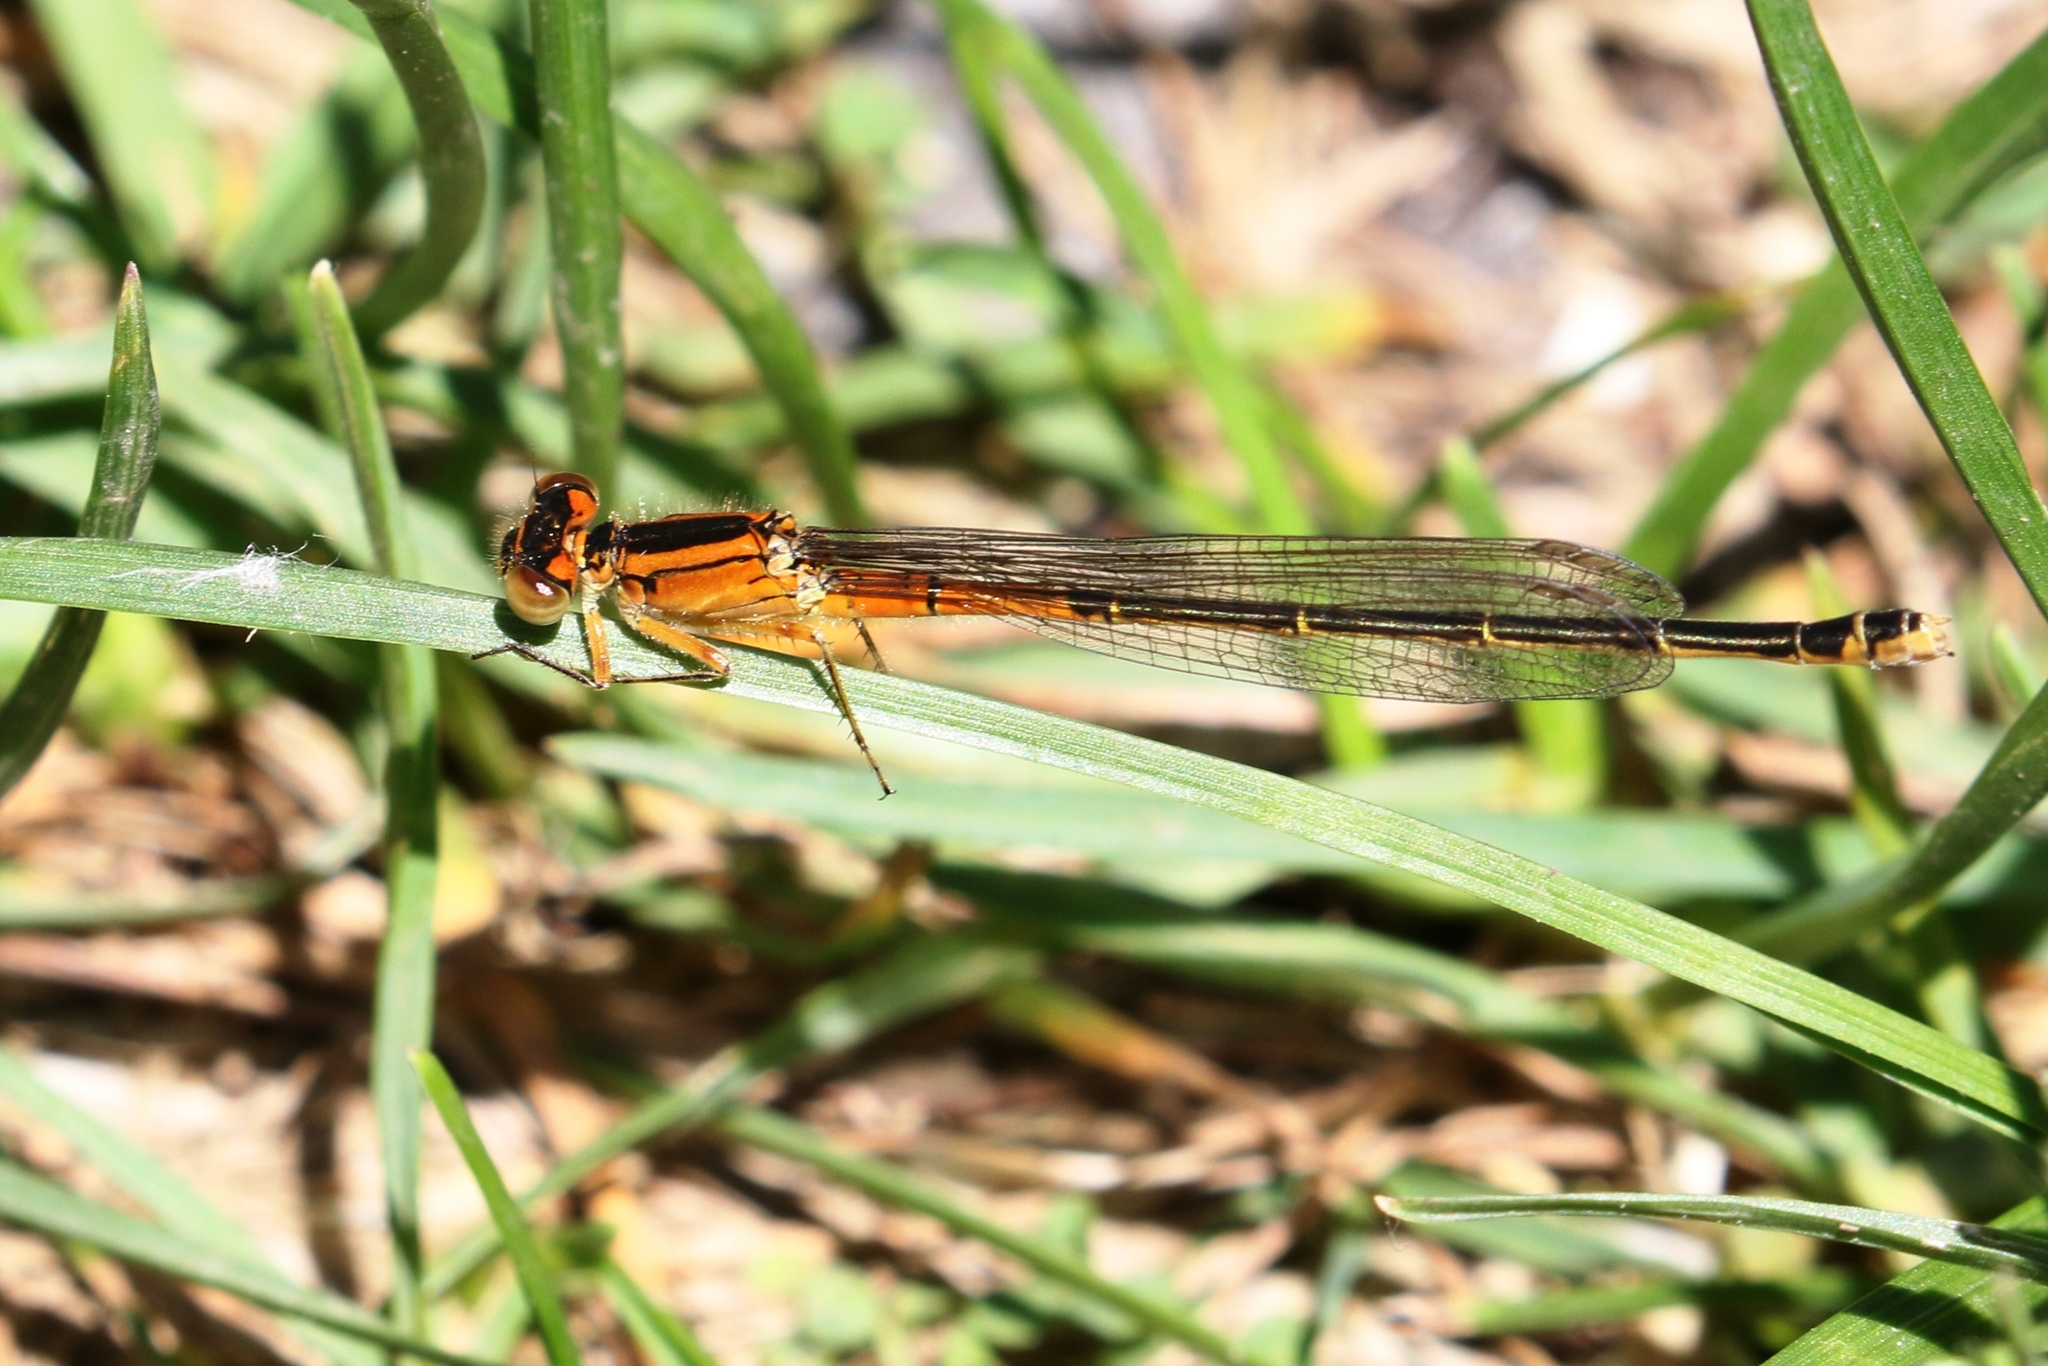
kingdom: Animalia
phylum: Arthropoda
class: Insecta
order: Odonata
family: Coenagrionidae
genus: Ischnura
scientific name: Ischnura verticalis
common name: Eastern forktail
